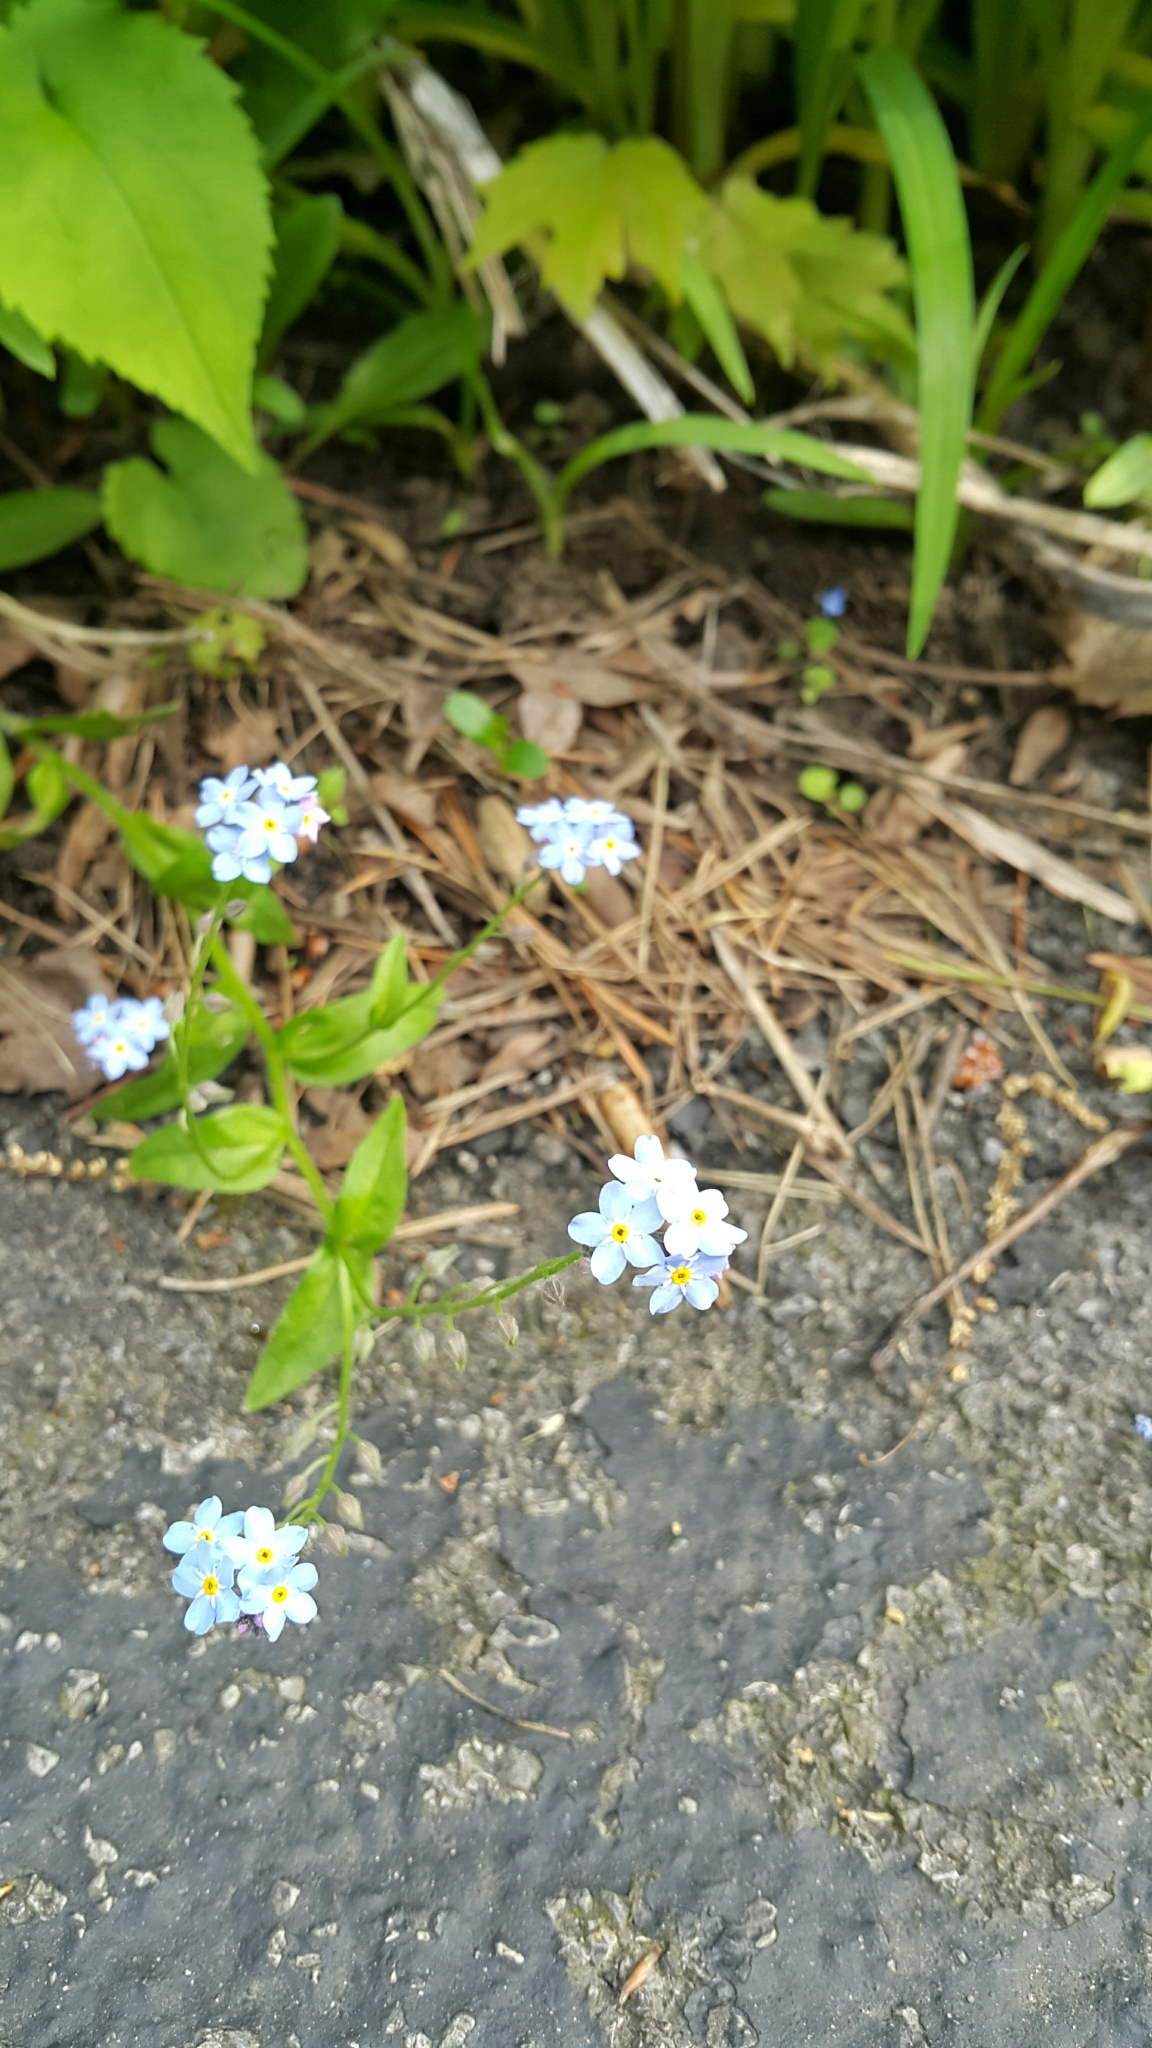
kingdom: Plantae
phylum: Tracheophyta
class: Magnoliopsida
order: Boraginales
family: Boraginaceae
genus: Myosotis
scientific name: Myosotis sylvatica
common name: Wood forget-me-not
